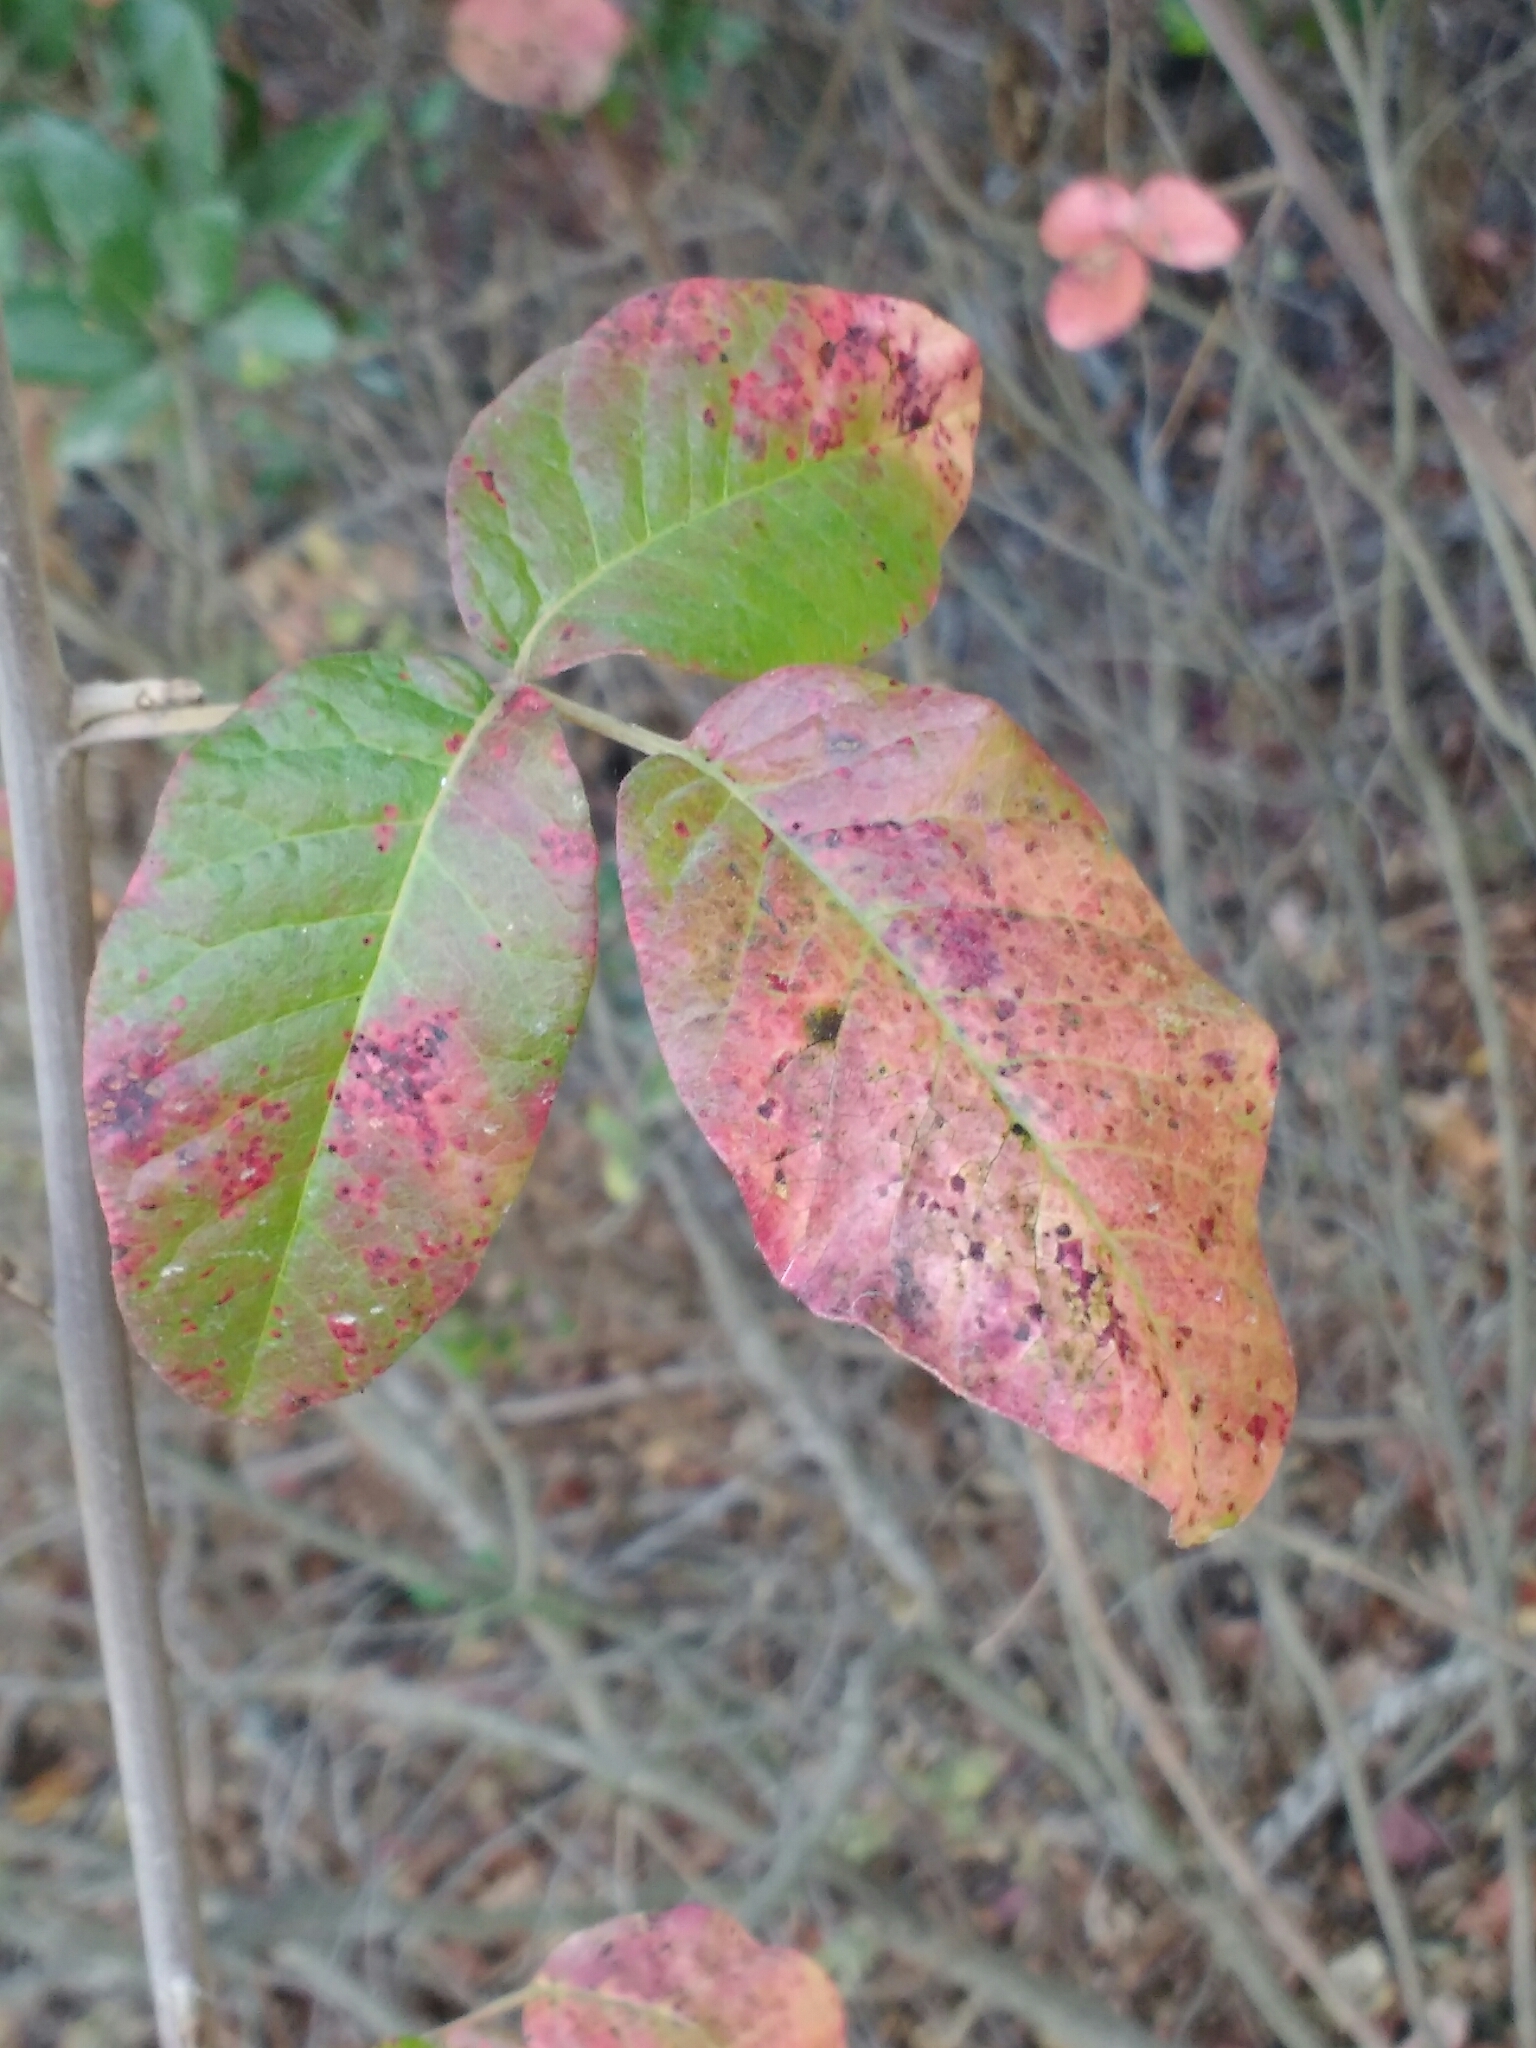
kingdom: Plantae
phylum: Tracheophyta
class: Magnoliopsida
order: Sapindales
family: Anacardiaceae
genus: Toxicodendron
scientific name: Toxicodendron diversilobum
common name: Pacific poison-oak
